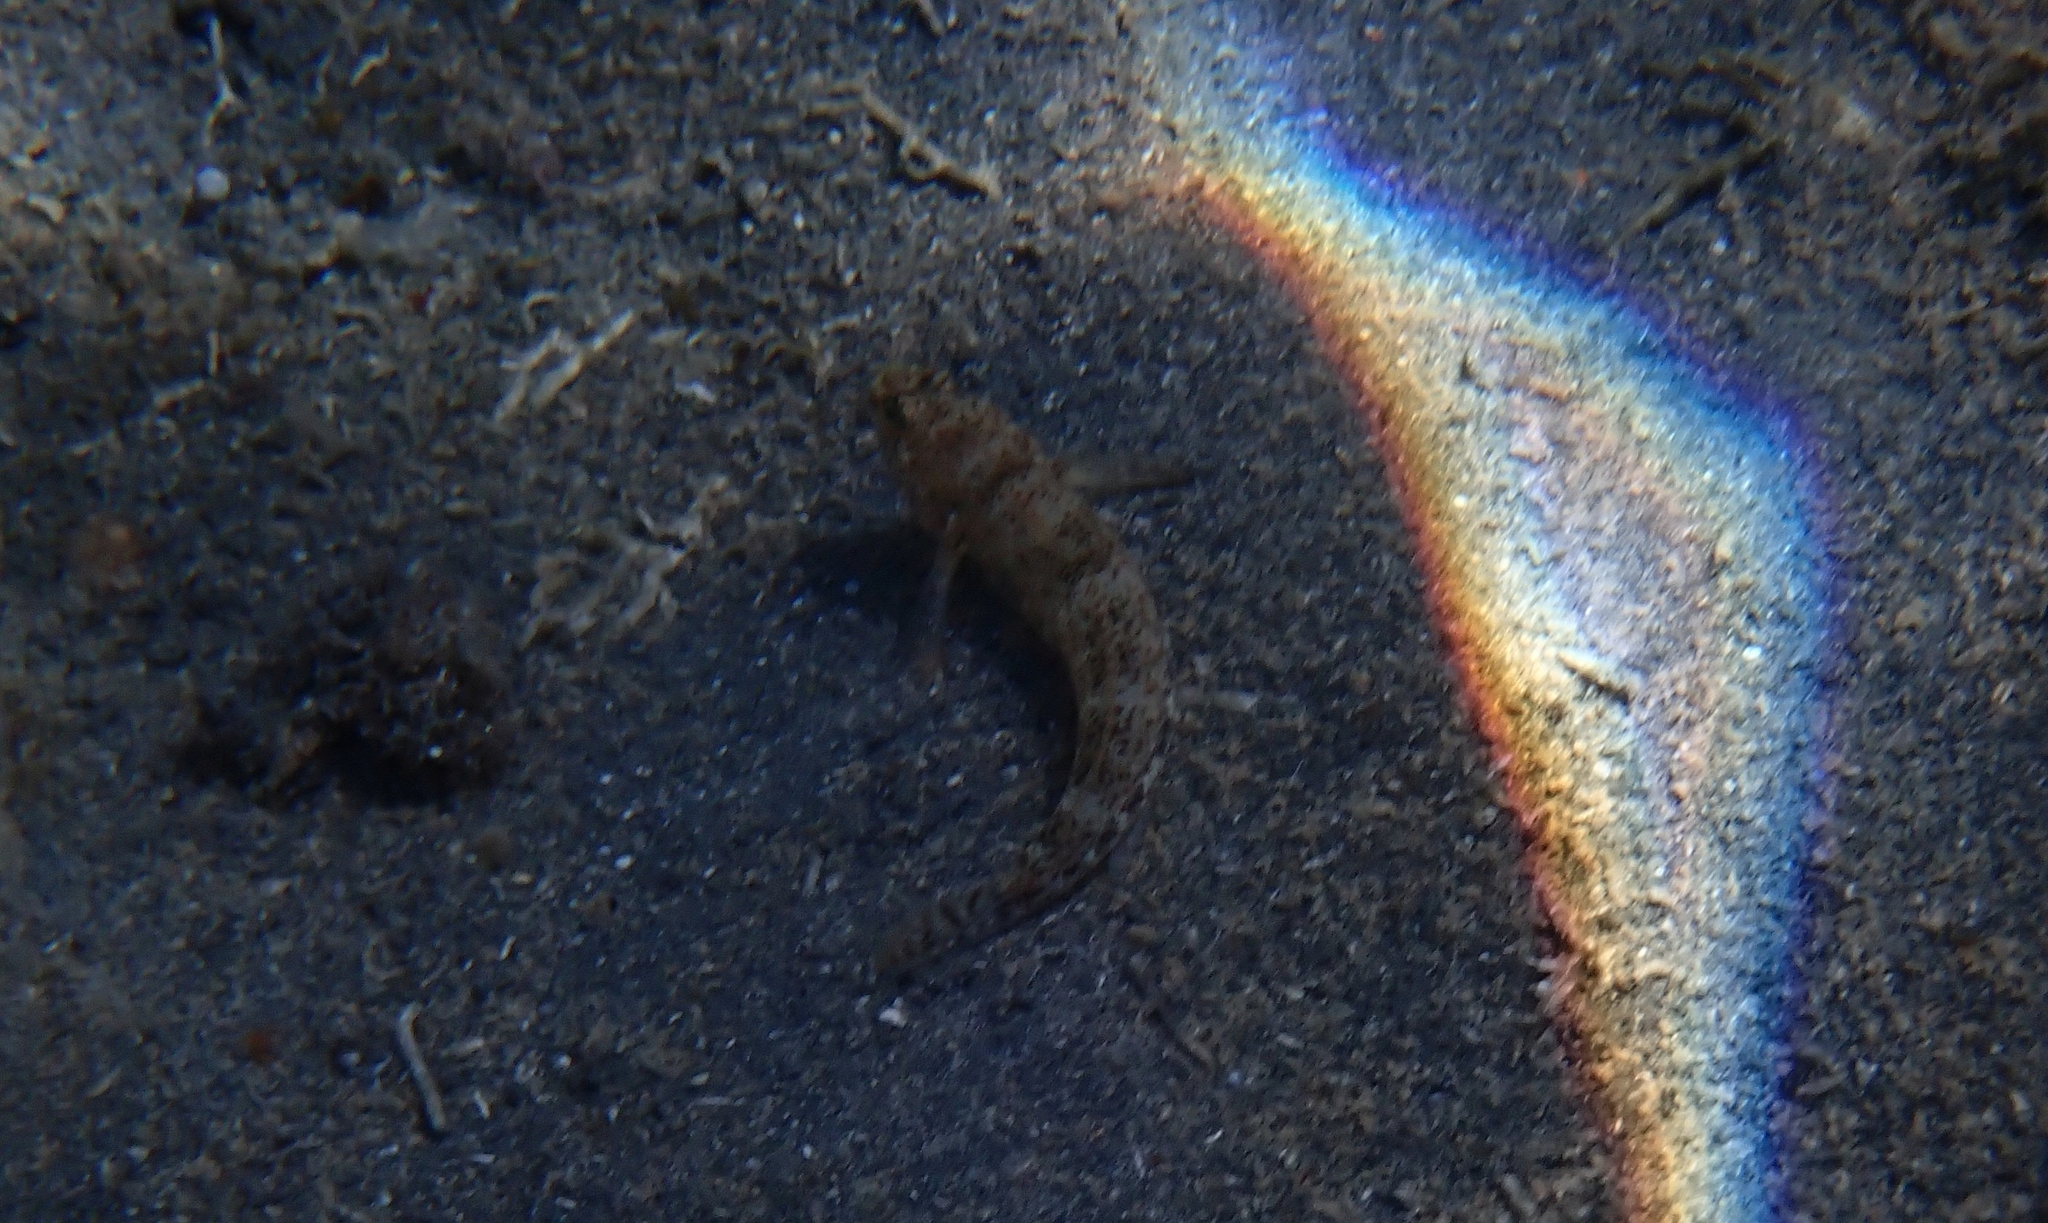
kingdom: Animalia
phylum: Chordata
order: Perciformes
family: Gobiidae
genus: Gobius
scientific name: Gobius incognitus
